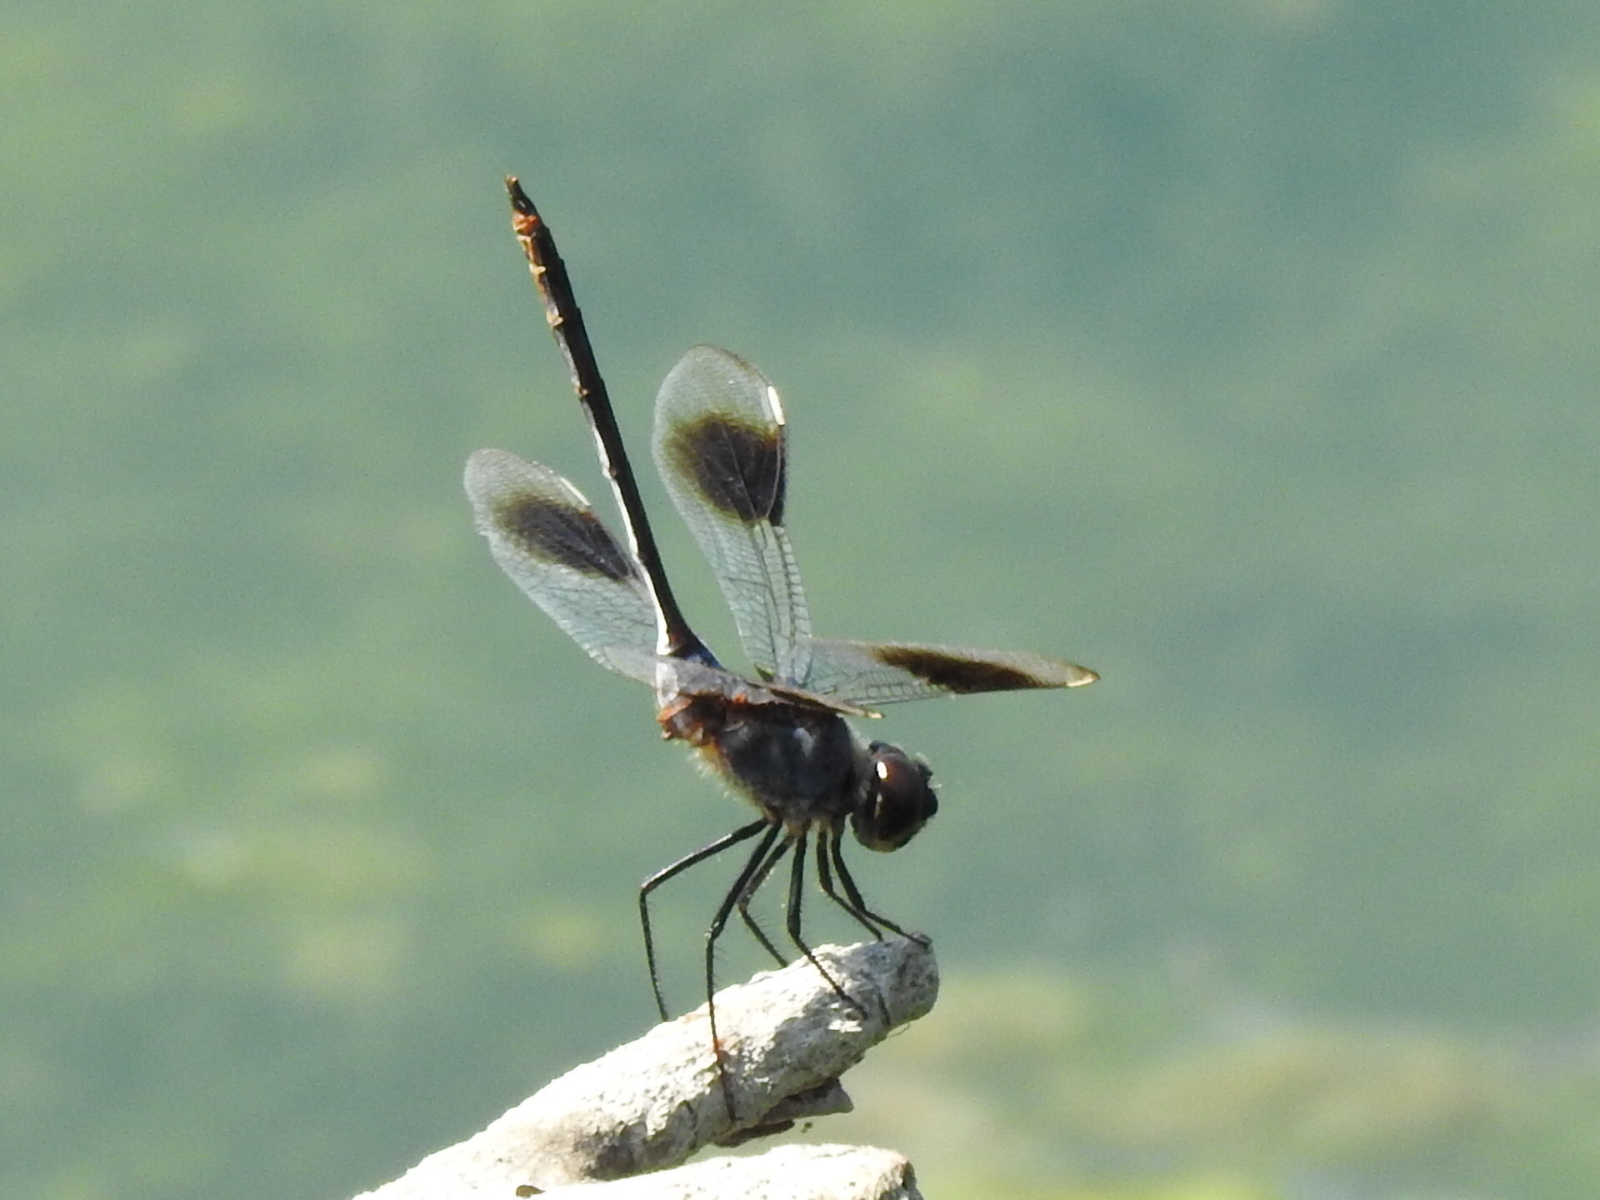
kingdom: Animalia
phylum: Arthropoda
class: Insecta
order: Odonata
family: Libellulidae
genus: Brachymesia
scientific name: Brachymesia gravida
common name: Four-spotted pennant
